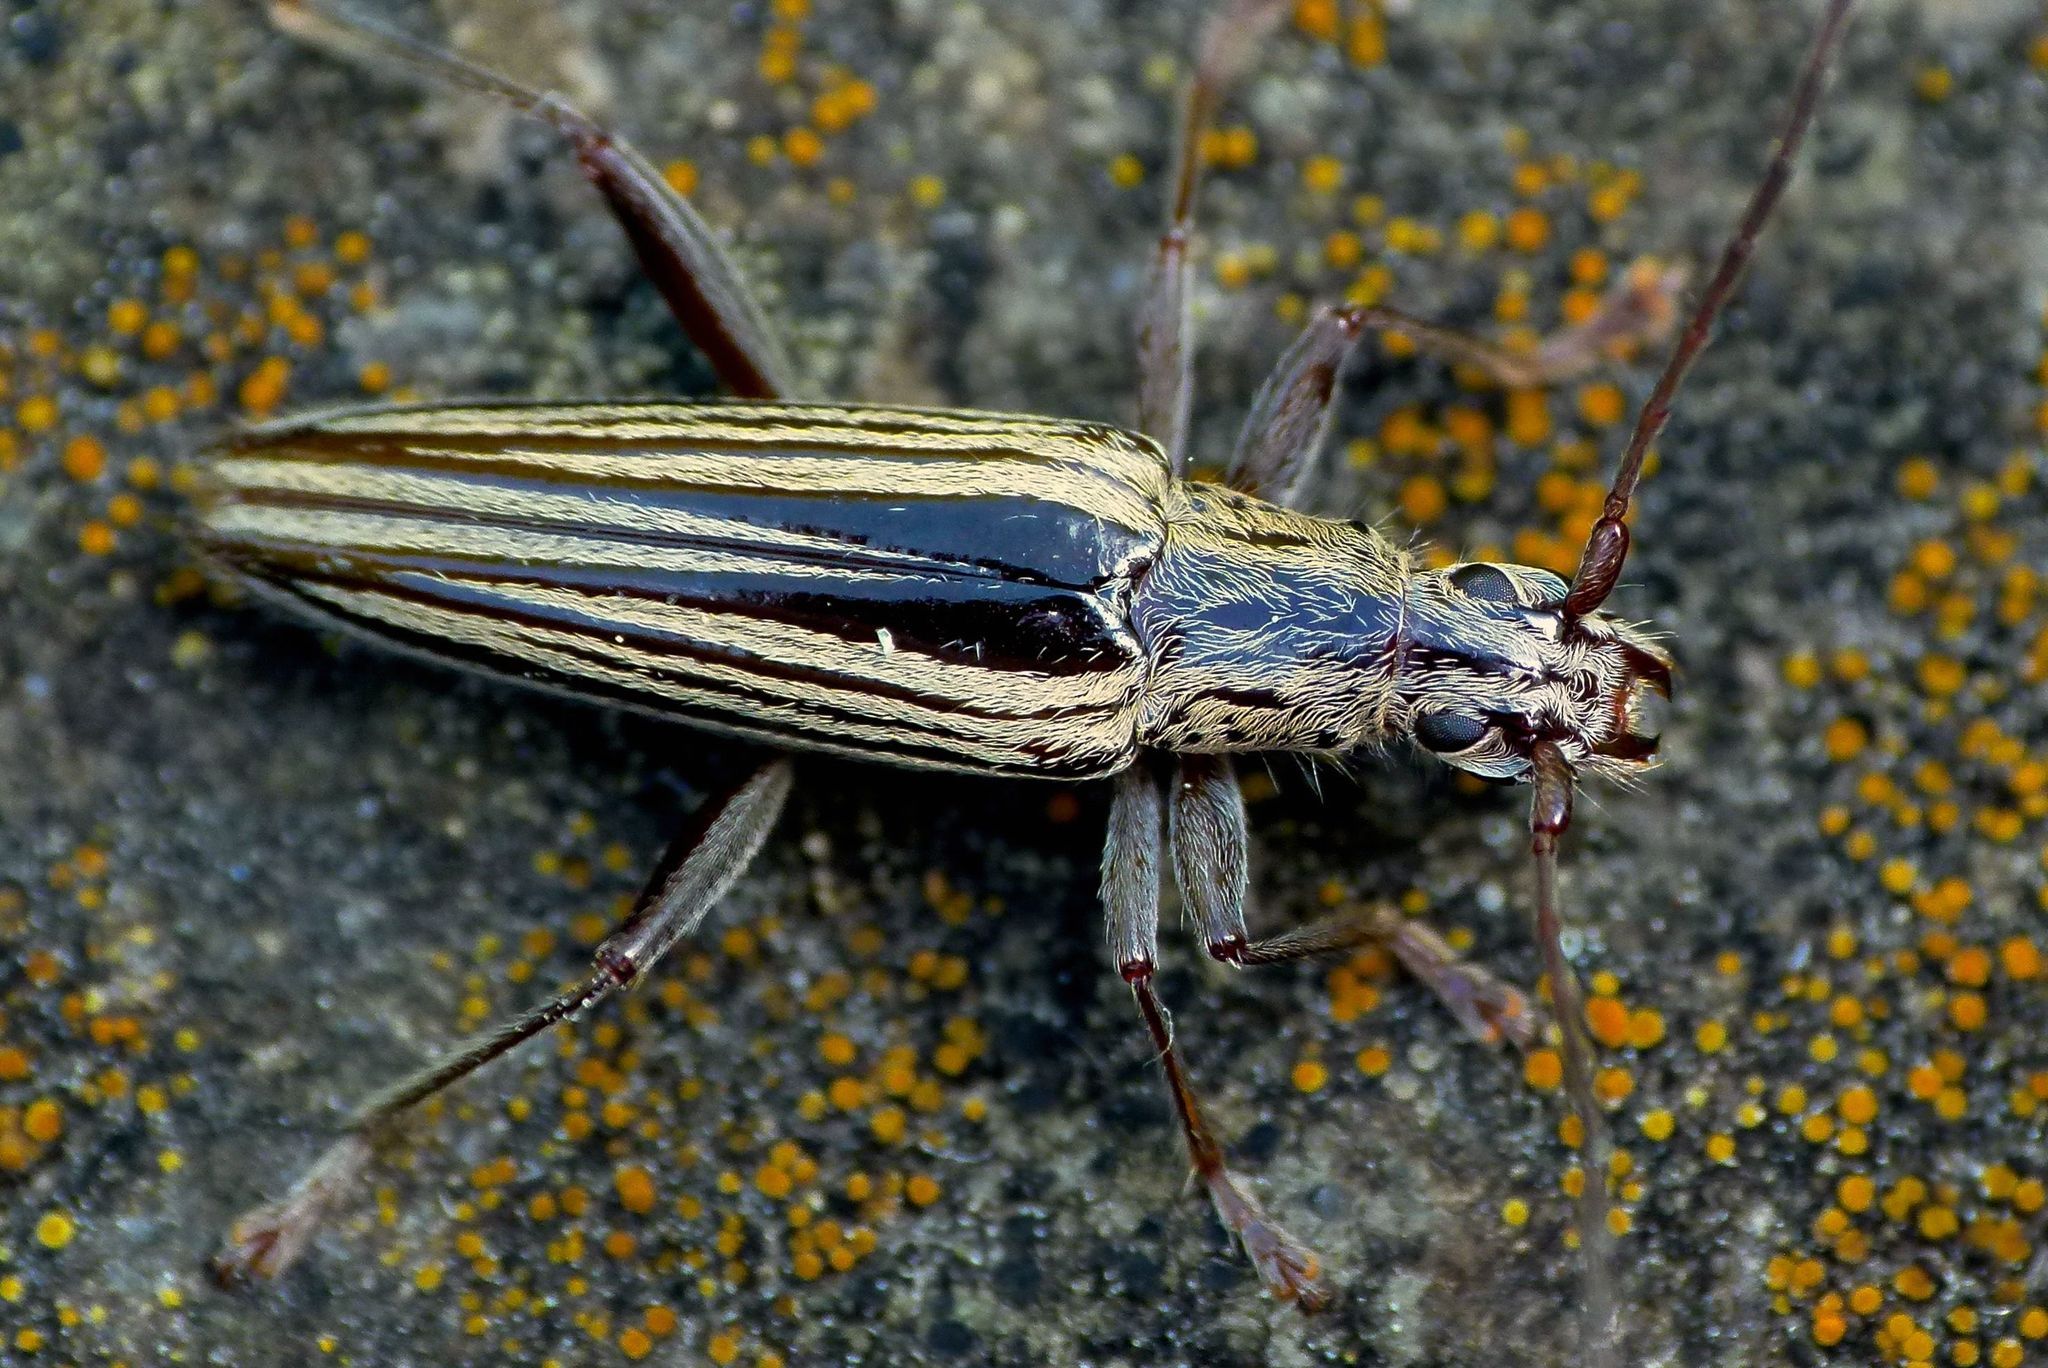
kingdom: Animalia
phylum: Arthropoda
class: Insecta
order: Coleoptera
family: Cerambycidae
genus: Coptomma
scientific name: Coptomma sulcatum
